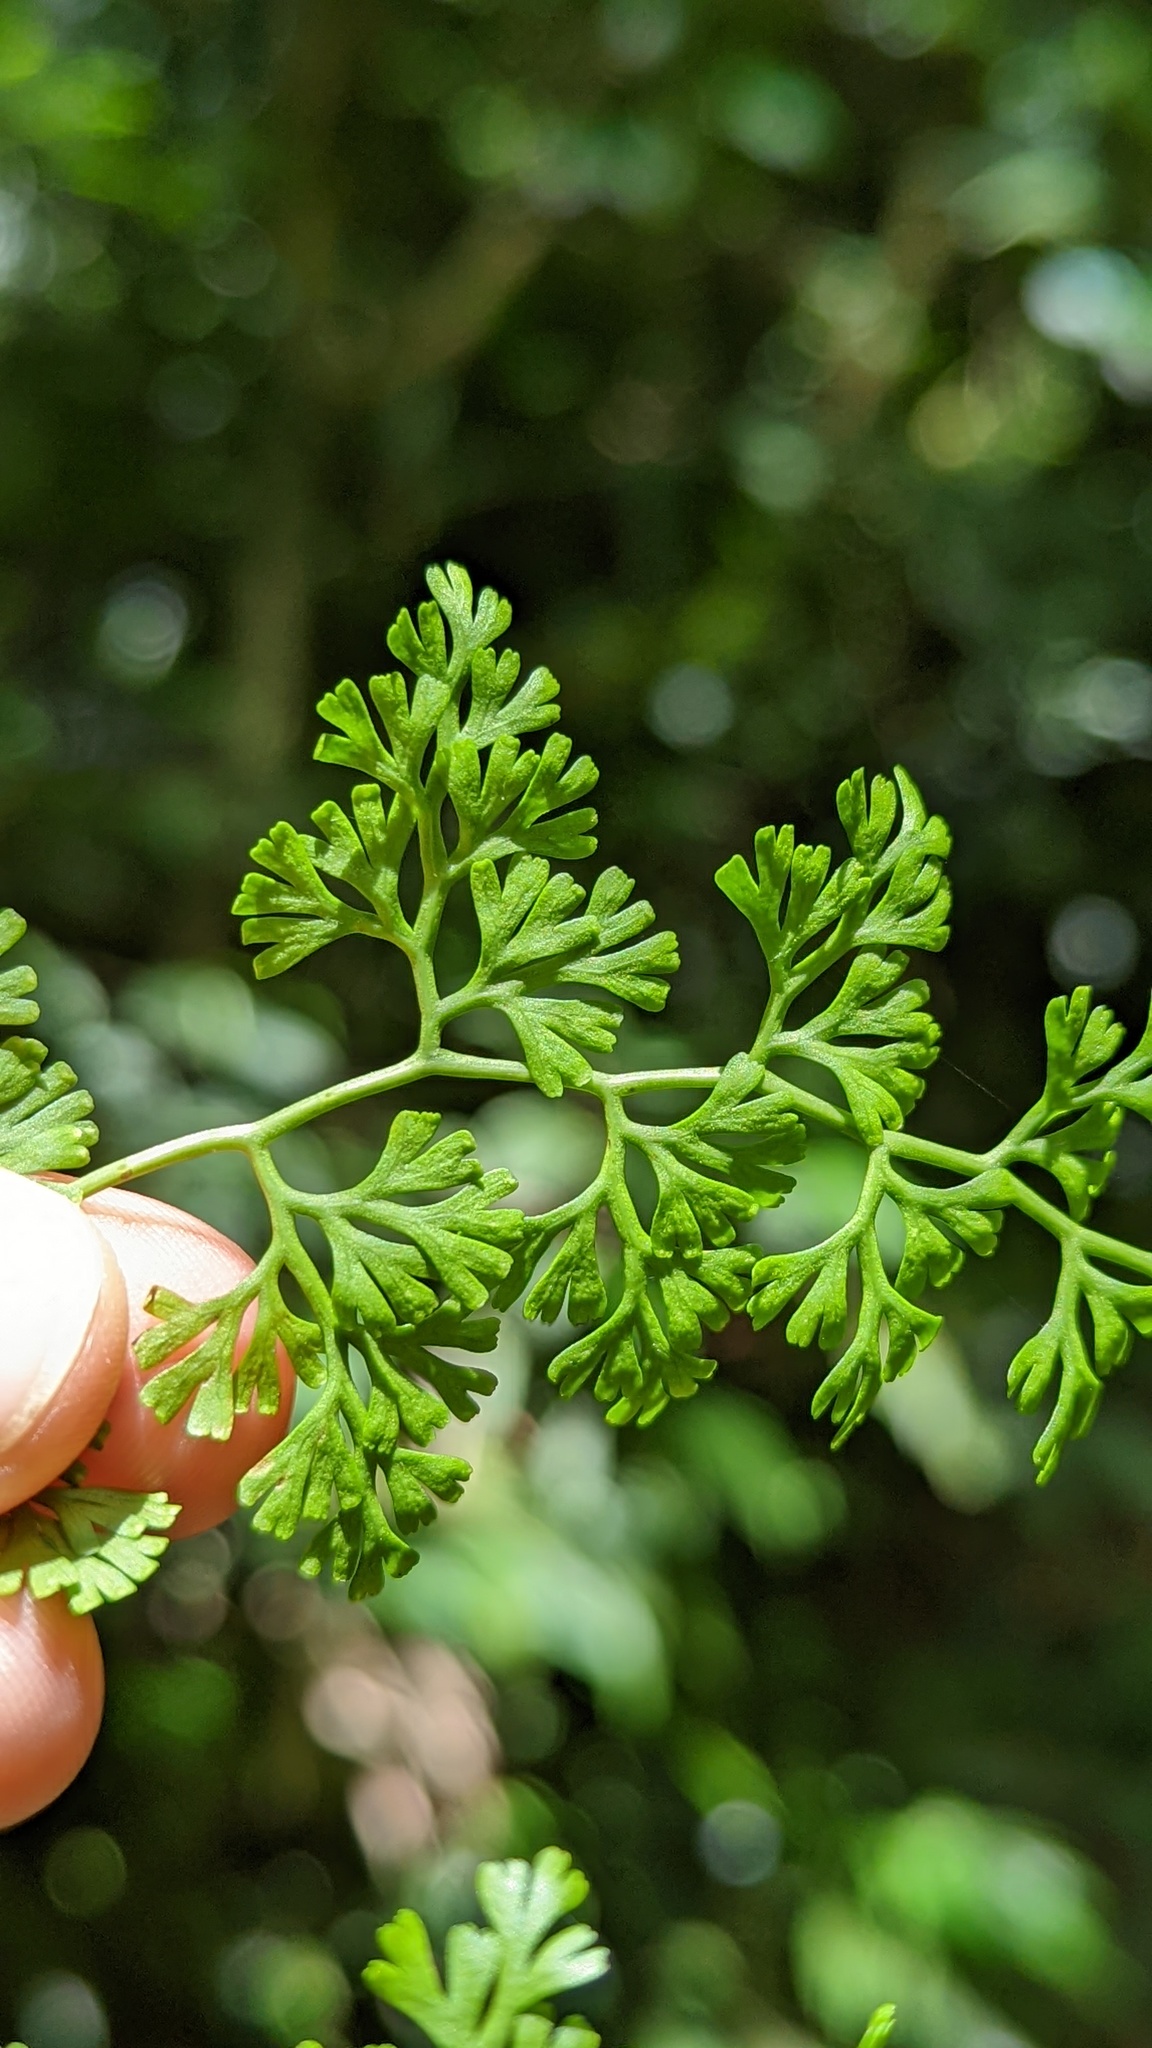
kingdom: Plantae
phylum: Tracheophyta
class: Polypodiopsida
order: Polypodiales
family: Pteridaceae
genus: Jamesonia
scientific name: Jamesonia flexuosa
